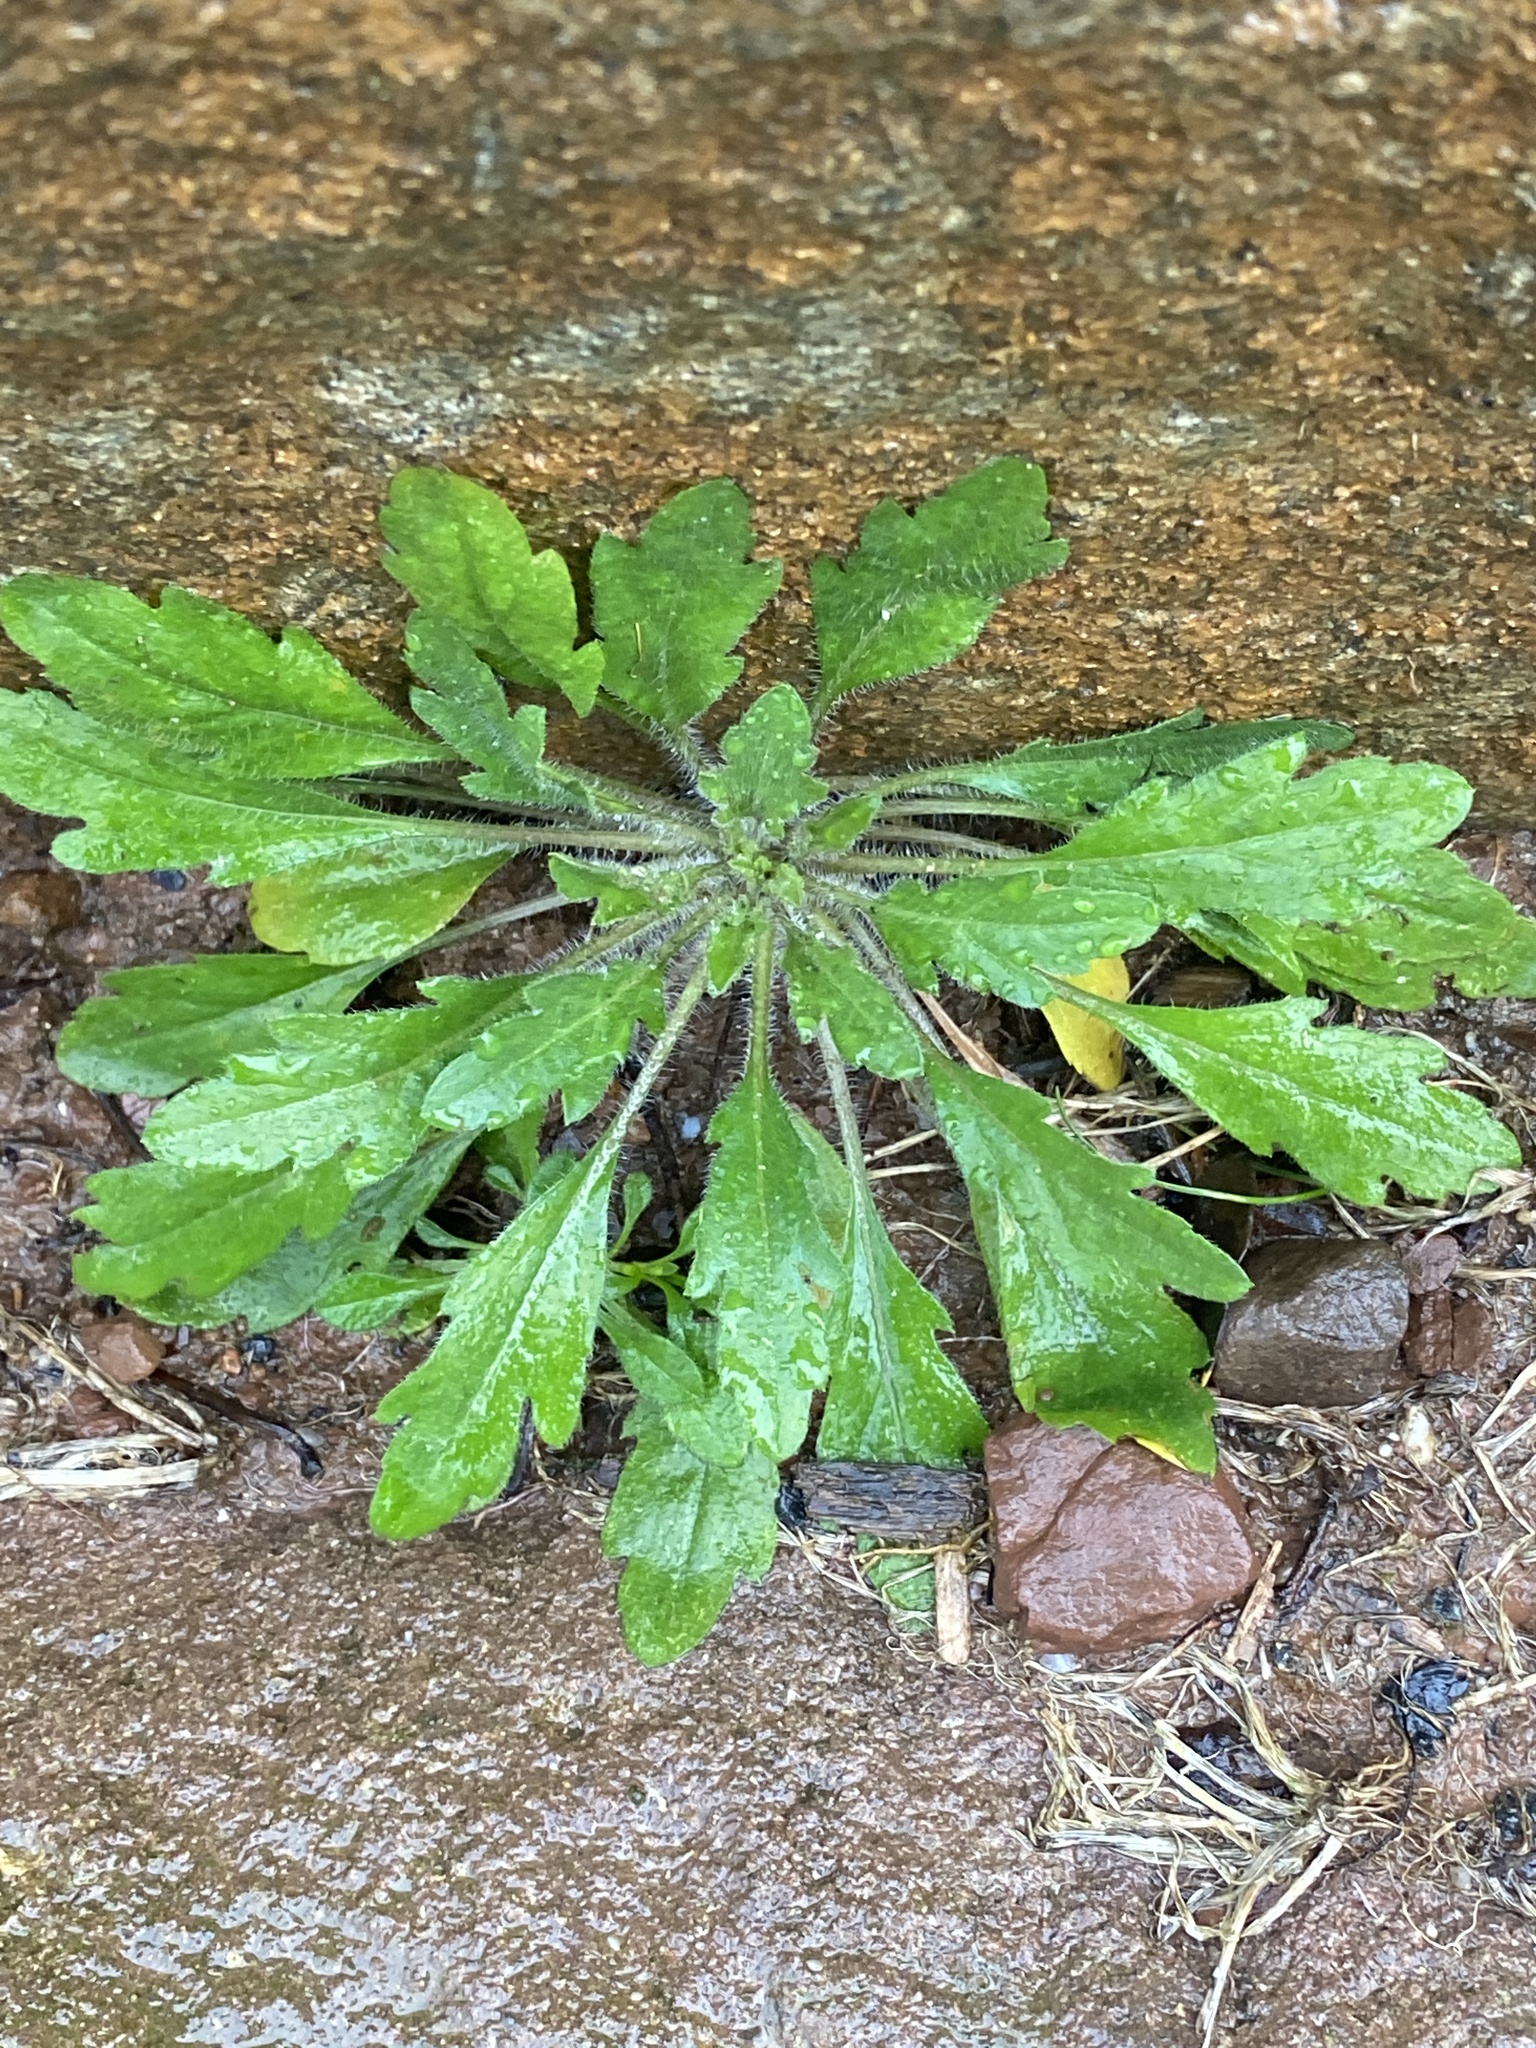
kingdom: Plantae
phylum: Tracheophyta
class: Magnoliopsida
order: Asterales
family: Asteraceae
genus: Erigeron
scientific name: Erigeron canadensis
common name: Canadian fleabane
